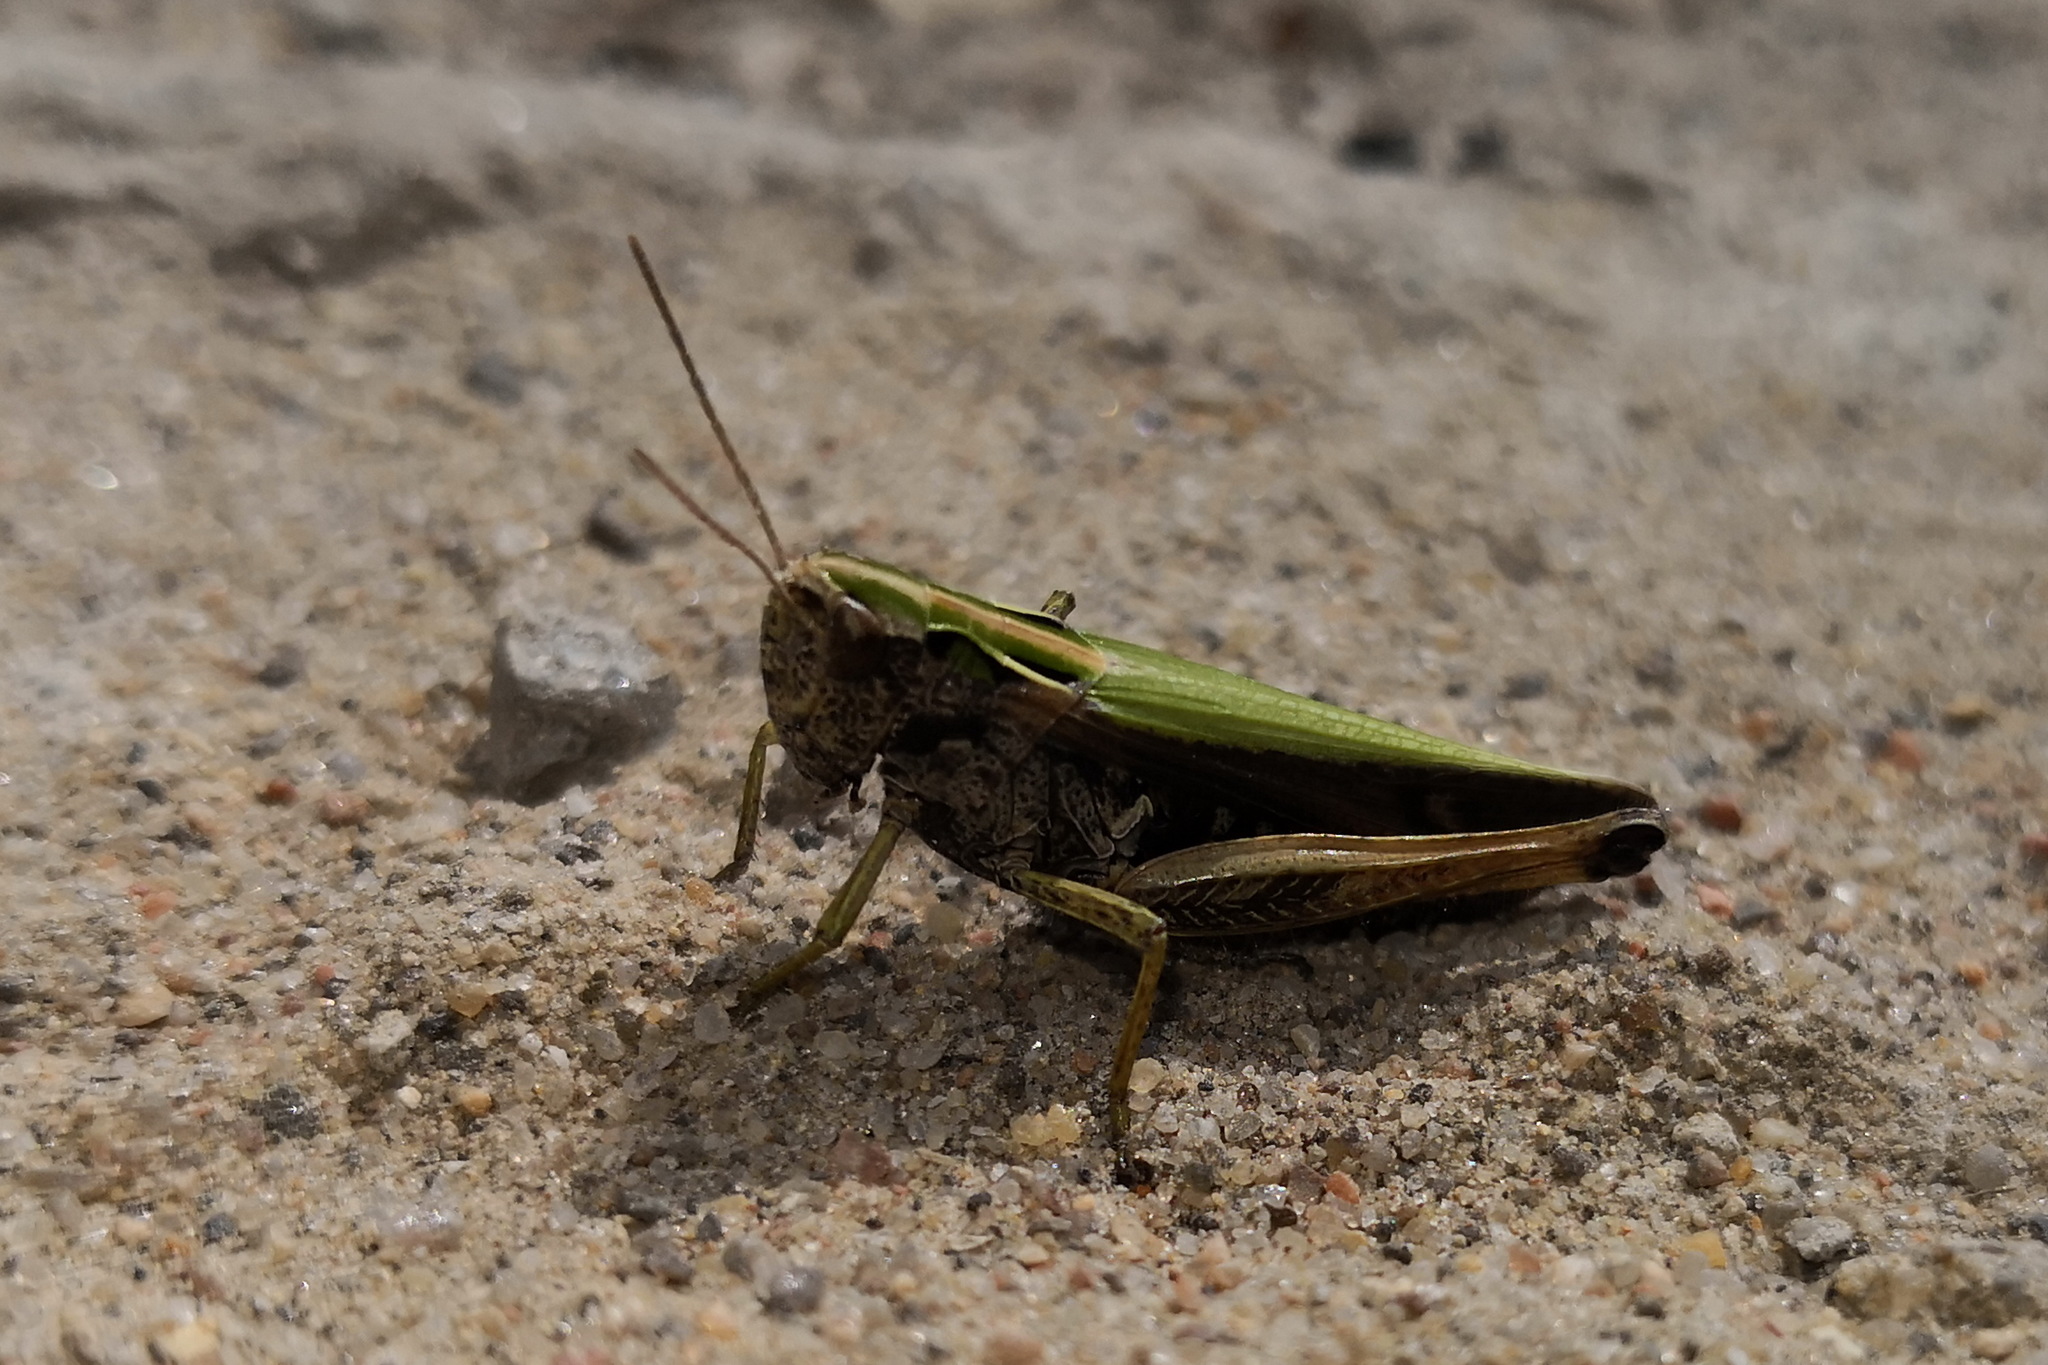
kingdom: Animalia
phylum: Arthropoda
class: Insecta
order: Orthoptera
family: Acrididae
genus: Omocestus
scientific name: Omocestus viridulus
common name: Common green grasshopper
